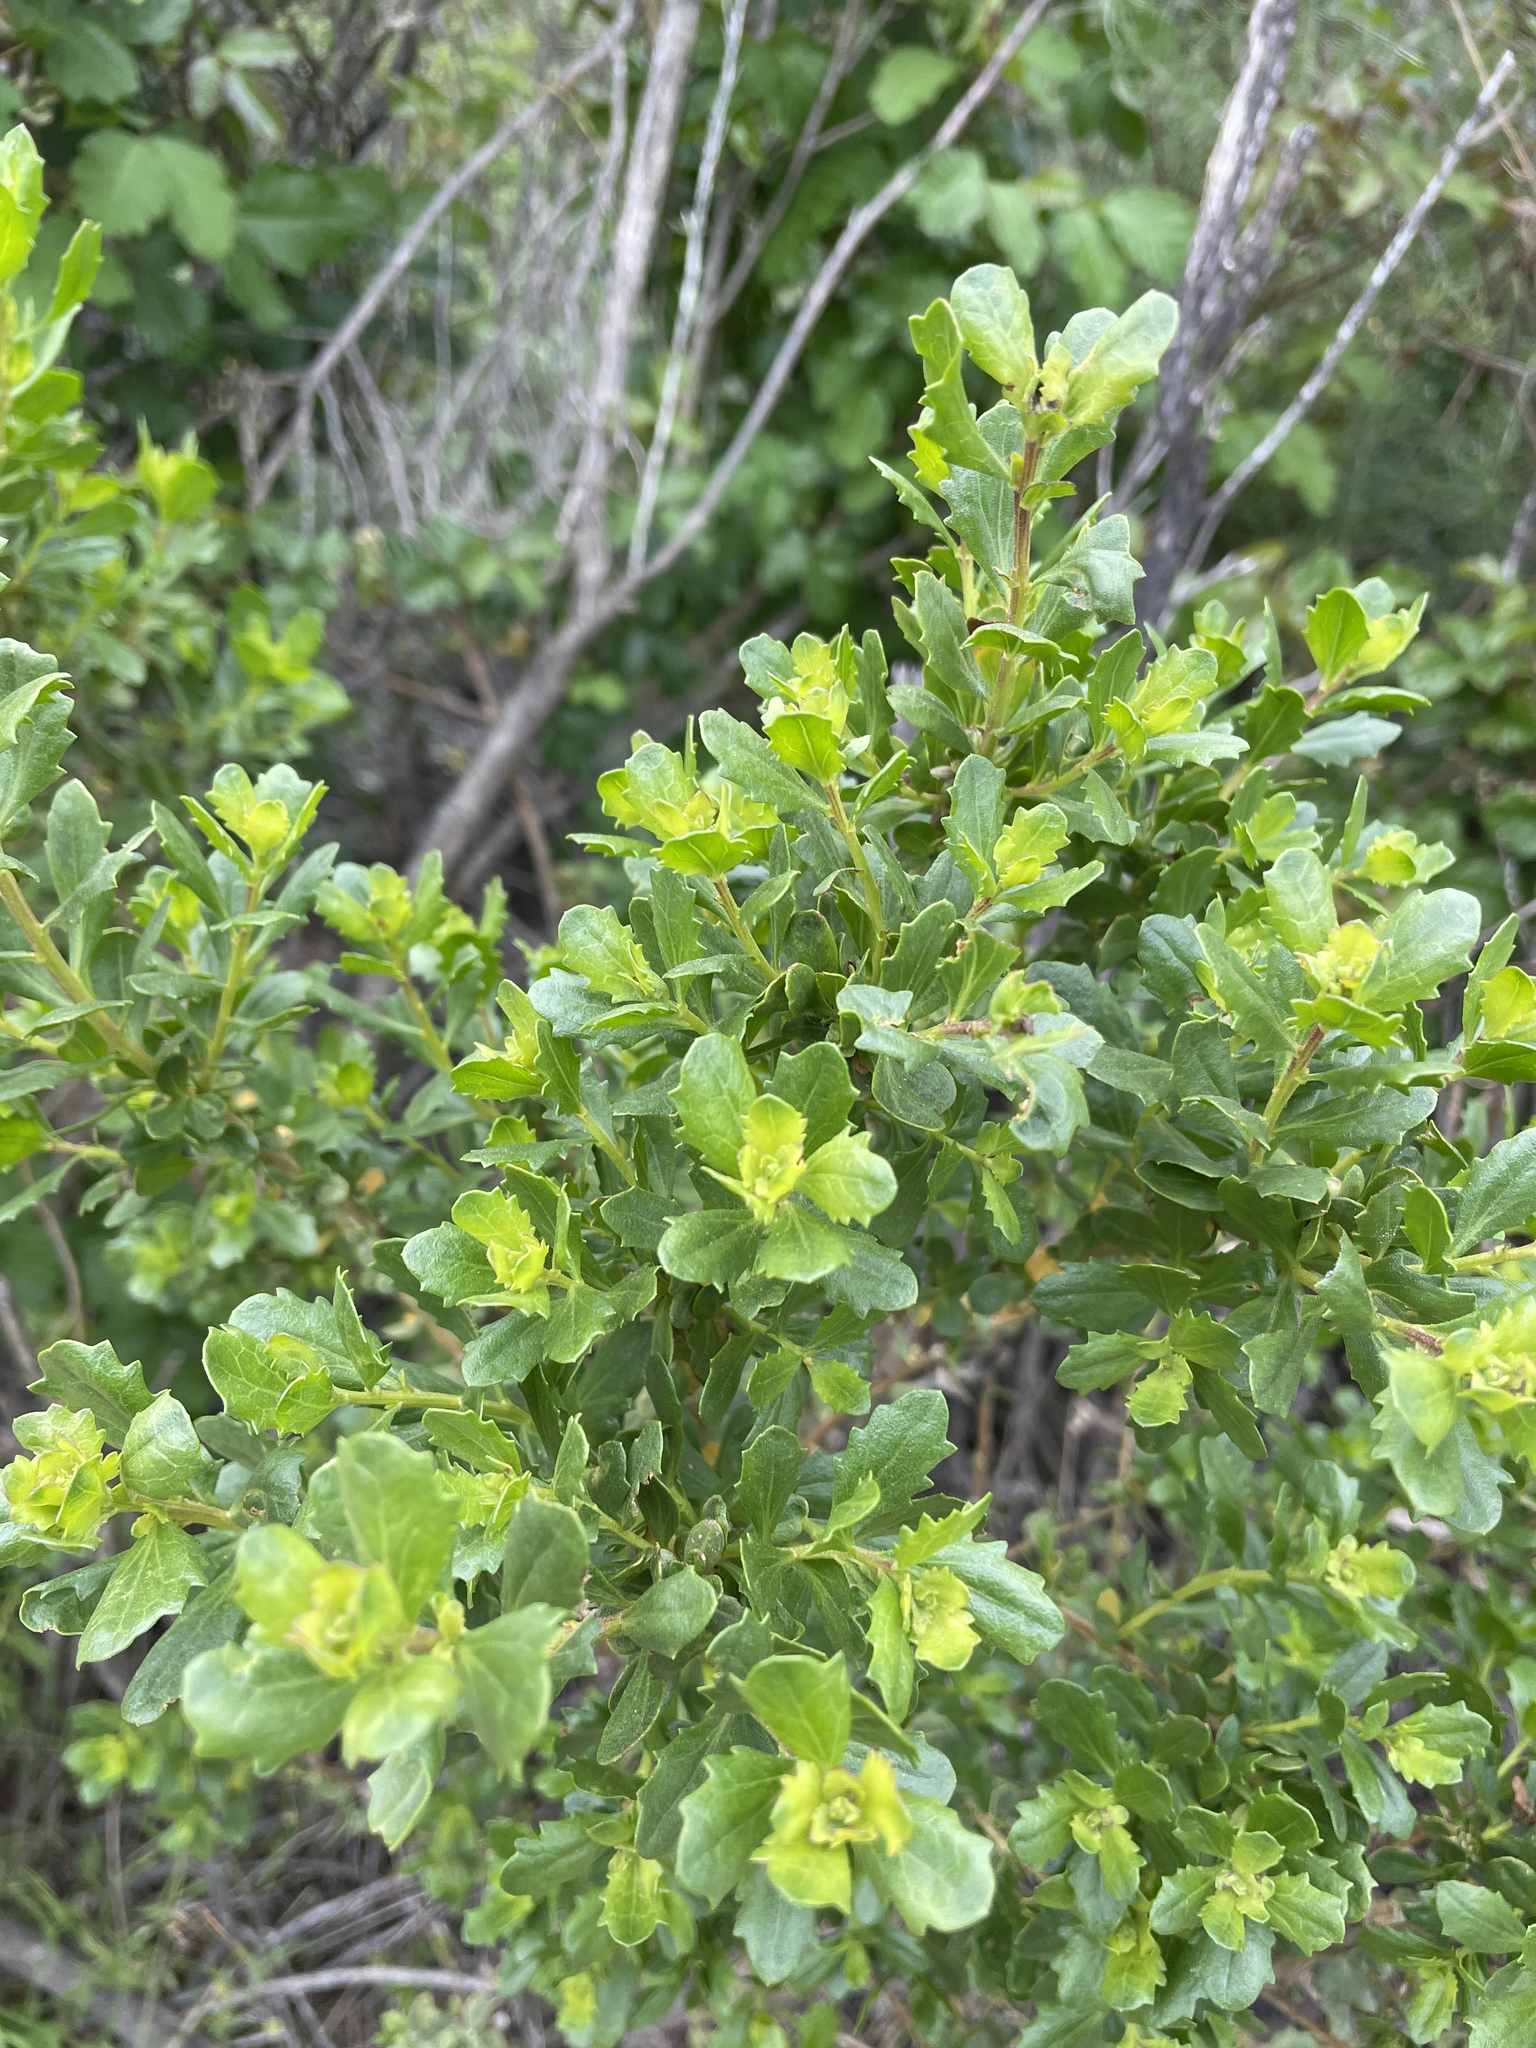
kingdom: Plantae
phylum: Tracheophyta
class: Magnoliopsida
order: Asterales
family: Asteraceae
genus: Baccharis
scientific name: Baccharis pilularis
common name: Coyotebrush
